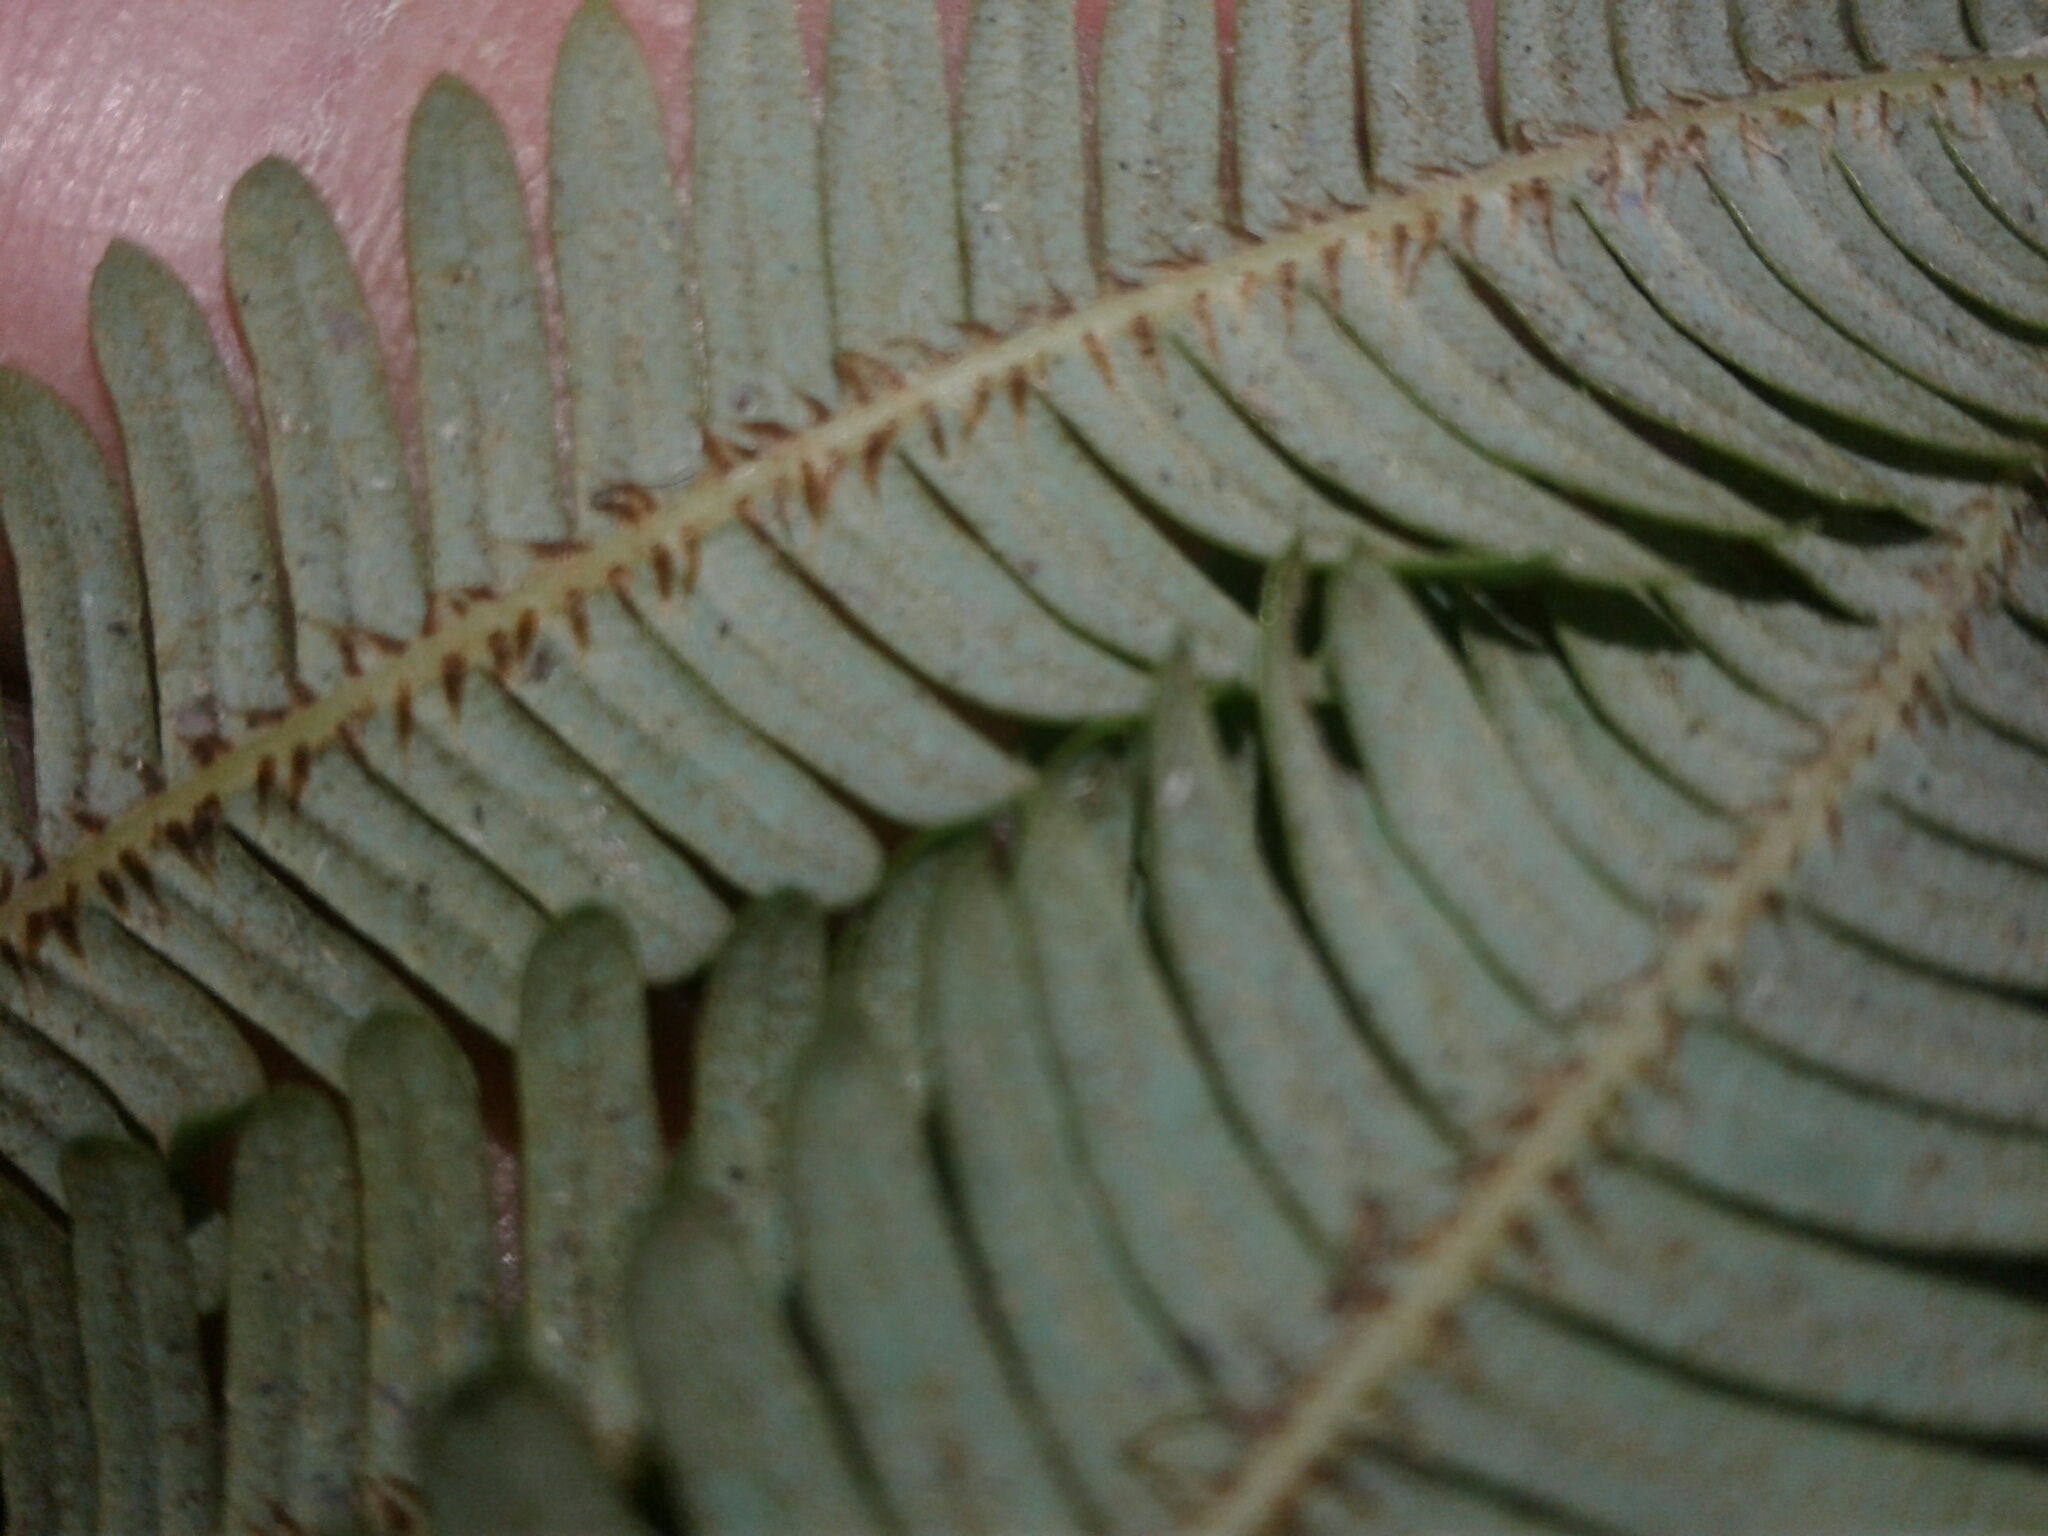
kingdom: Plantae
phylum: Tracheophyta
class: Polypodiopsida
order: Gleicheniales
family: Gleicheniaceae
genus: Sticherus
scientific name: Sticherus cunninghamii
